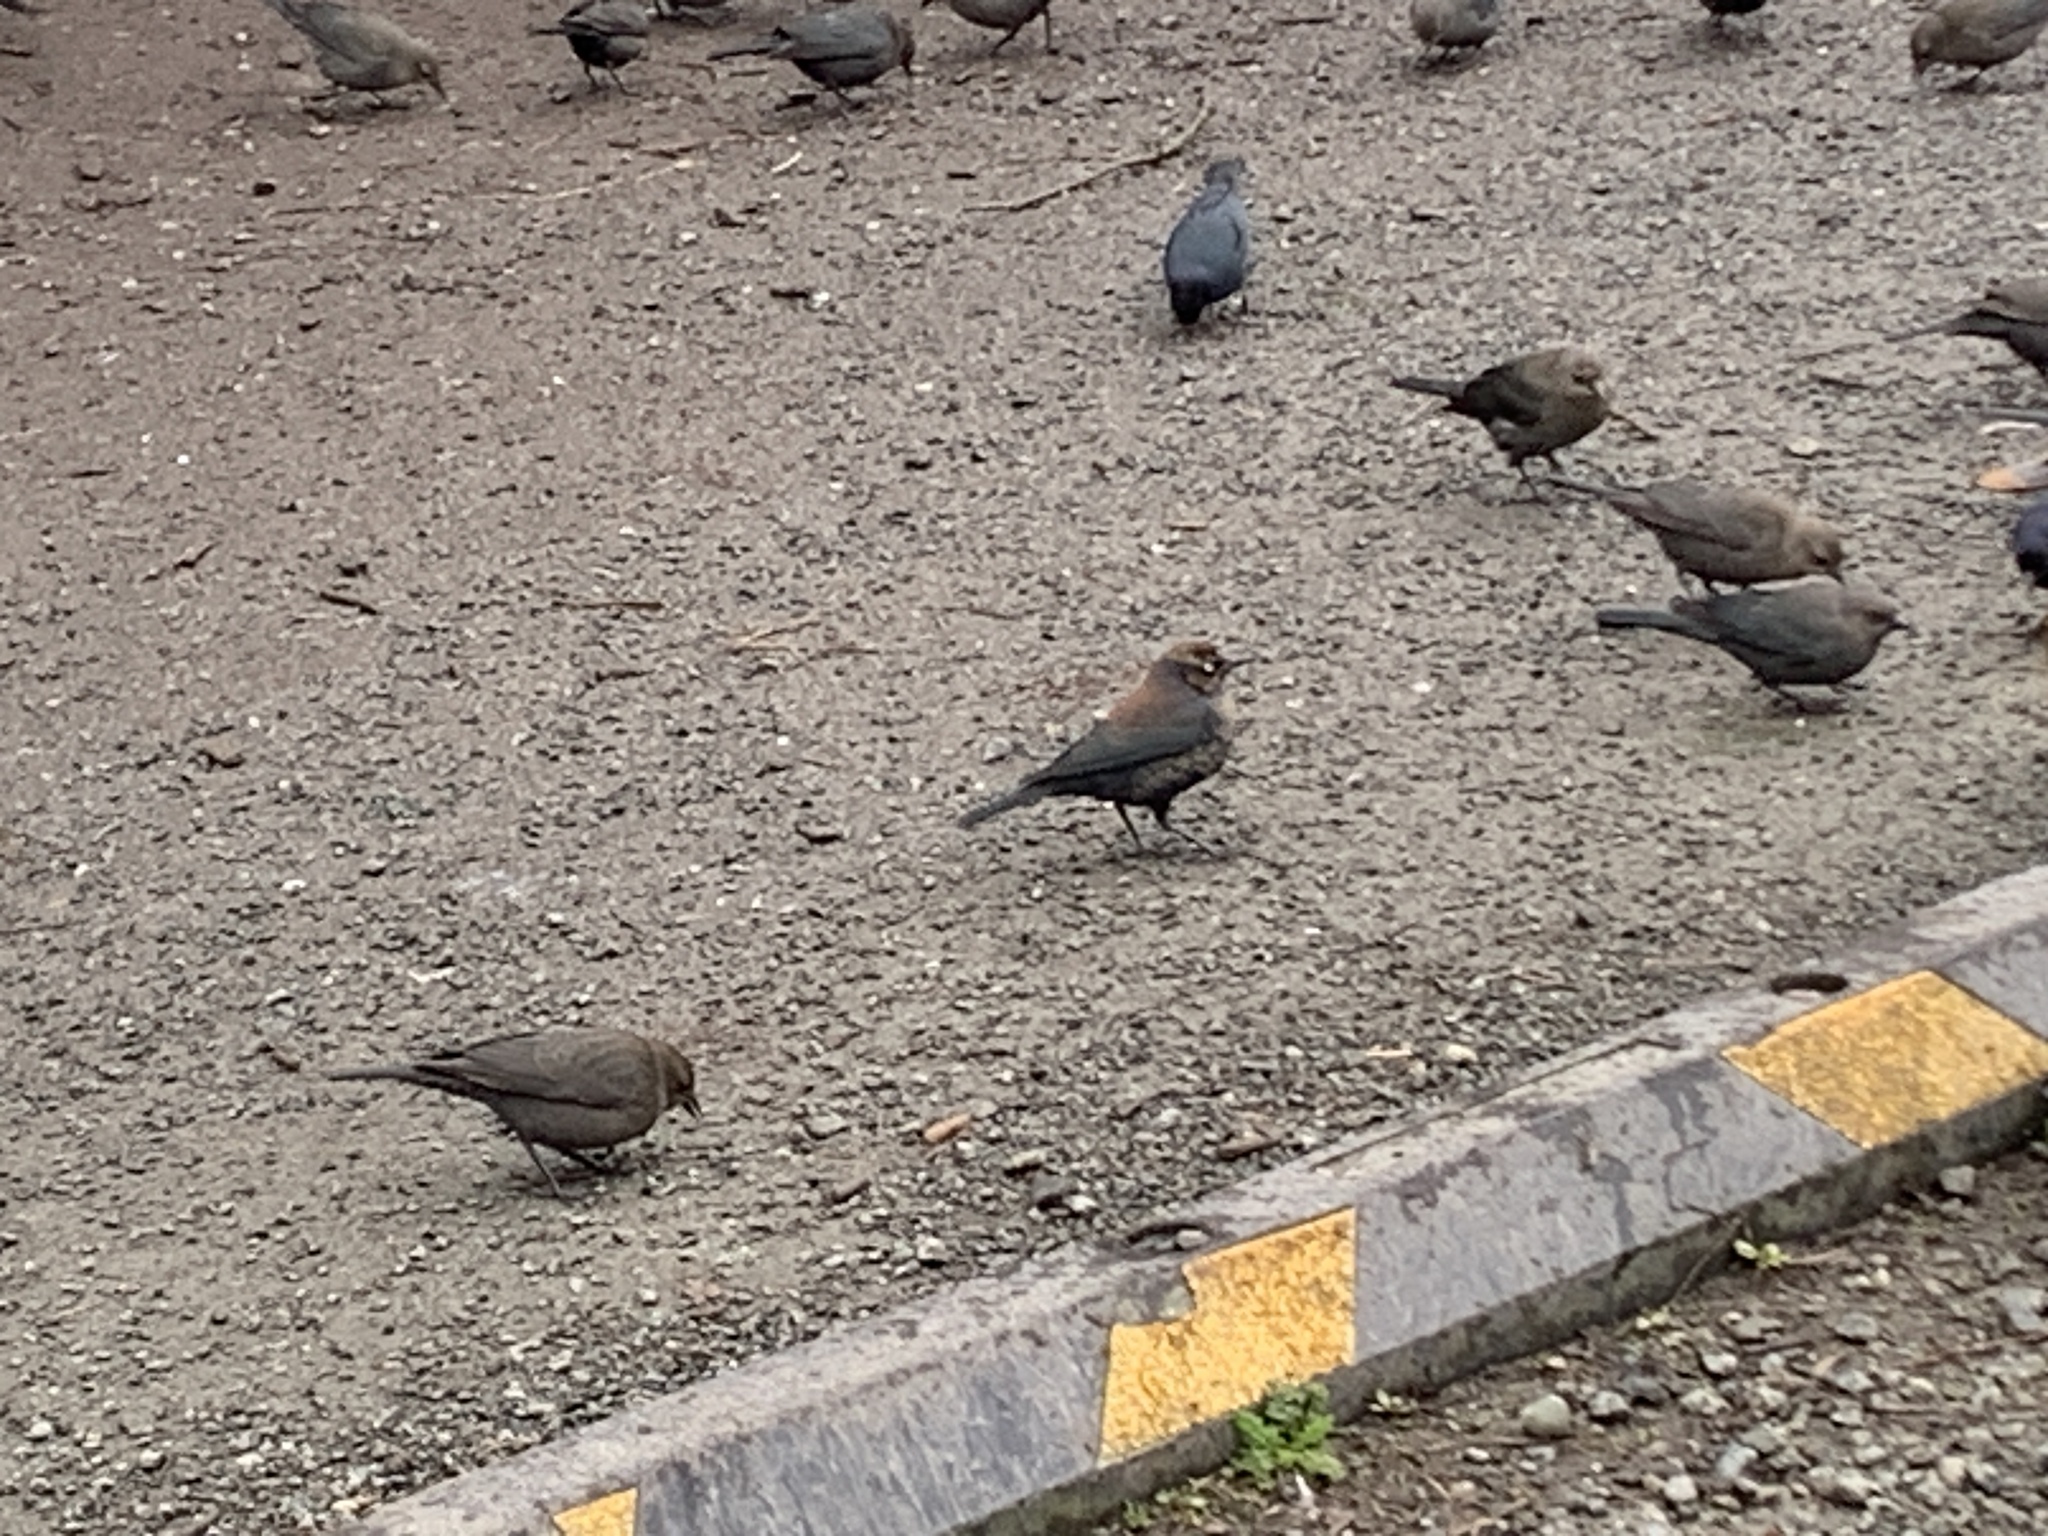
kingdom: Animalia
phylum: Chordata
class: Aves
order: Passeriformes
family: Icteridae
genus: Euphagus
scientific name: Euphagus carolinus
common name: Rusty blackbird
